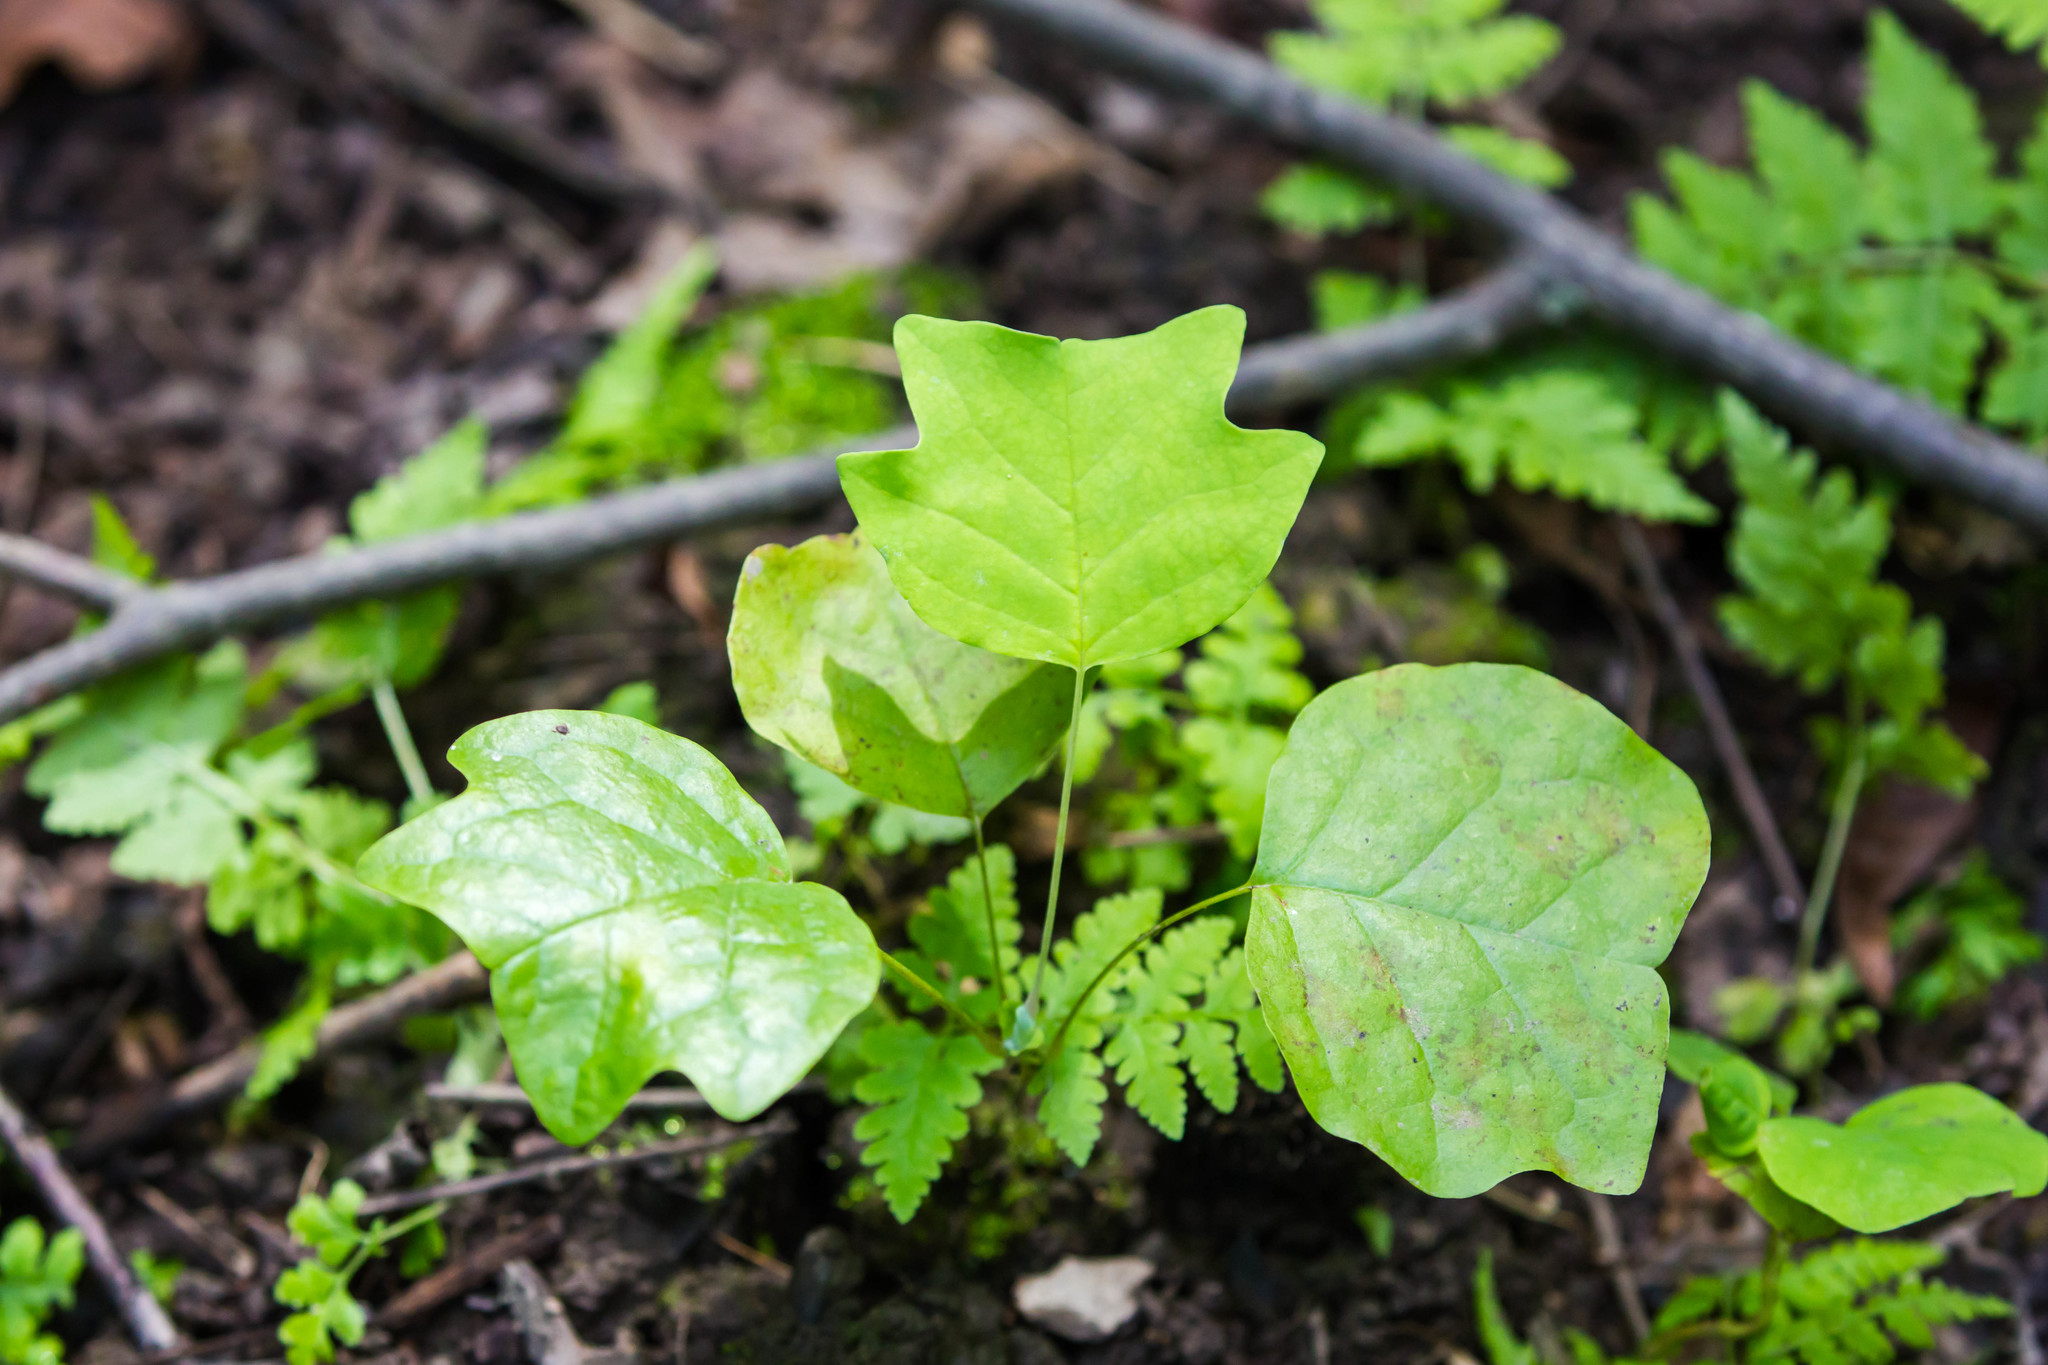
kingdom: Plantae
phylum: Tracheophyta
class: Magnoliopsida
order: Magnoliales
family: Magnoliaceae
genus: Liriodendron
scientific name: Liriodendron tulipifera
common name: Tulip tree
